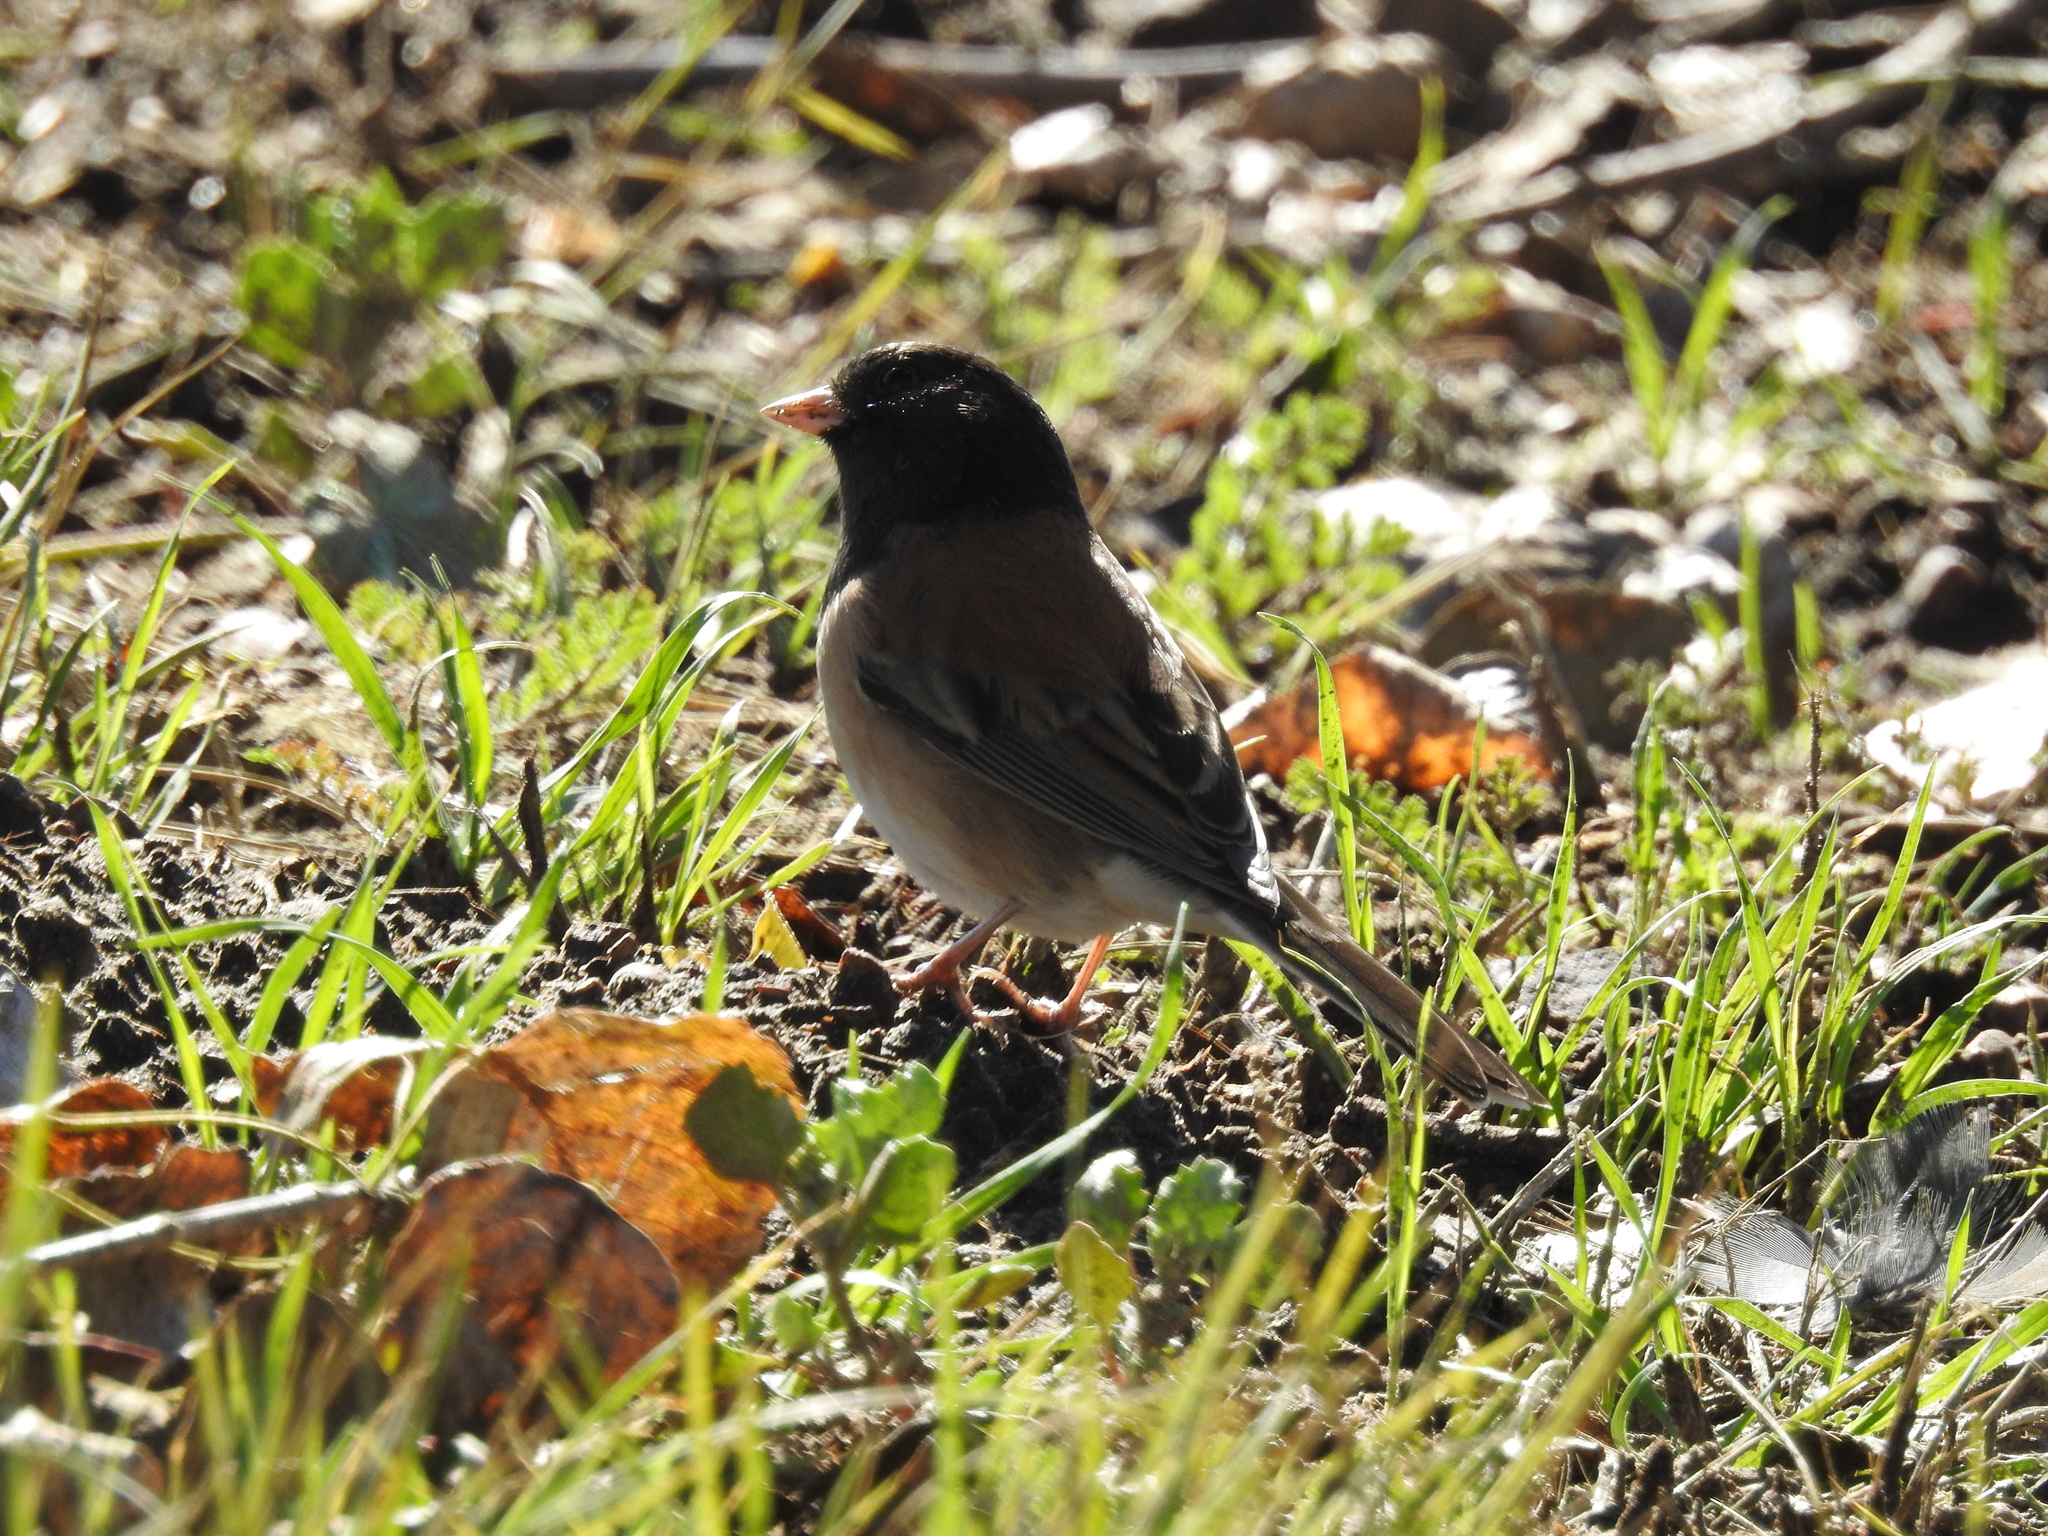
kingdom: Animalia
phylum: Chordata
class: Aves
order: Passeriformes
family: Passerellidae
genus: Junco
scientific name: Junco hyemalis
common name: Dark-eyed junco
